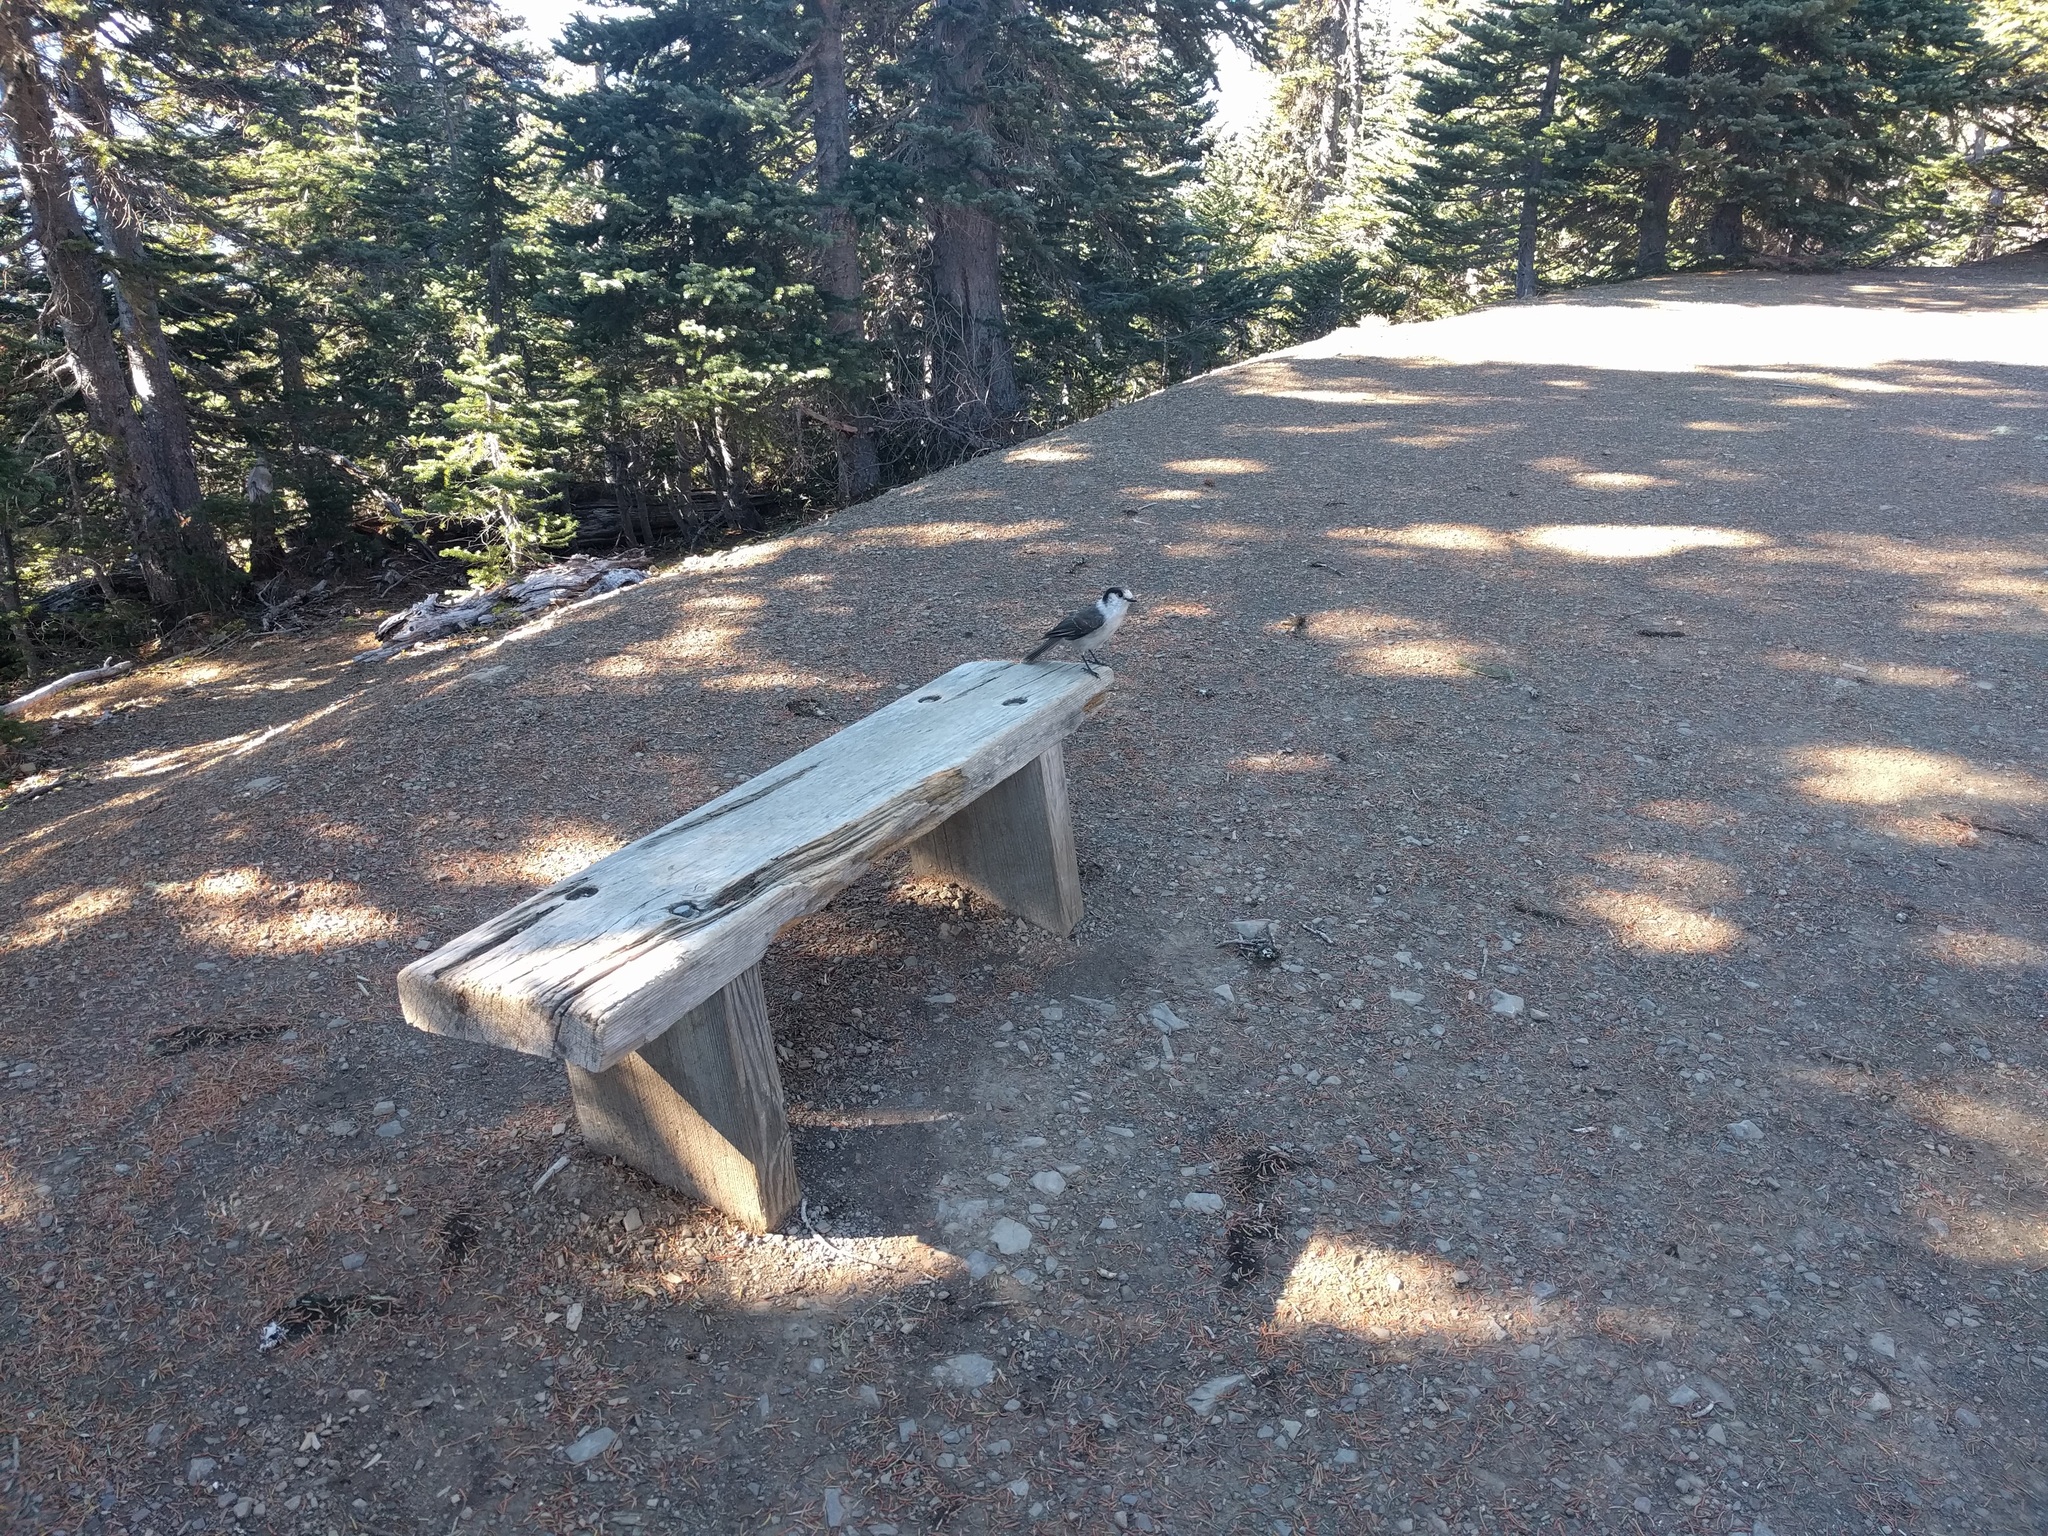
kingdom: Animalia
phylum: Chordata
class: Aves
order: Passeriformes
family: Corvidae
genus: Perisoreus
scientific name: Perisoreus canadensis
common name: Gray jay
